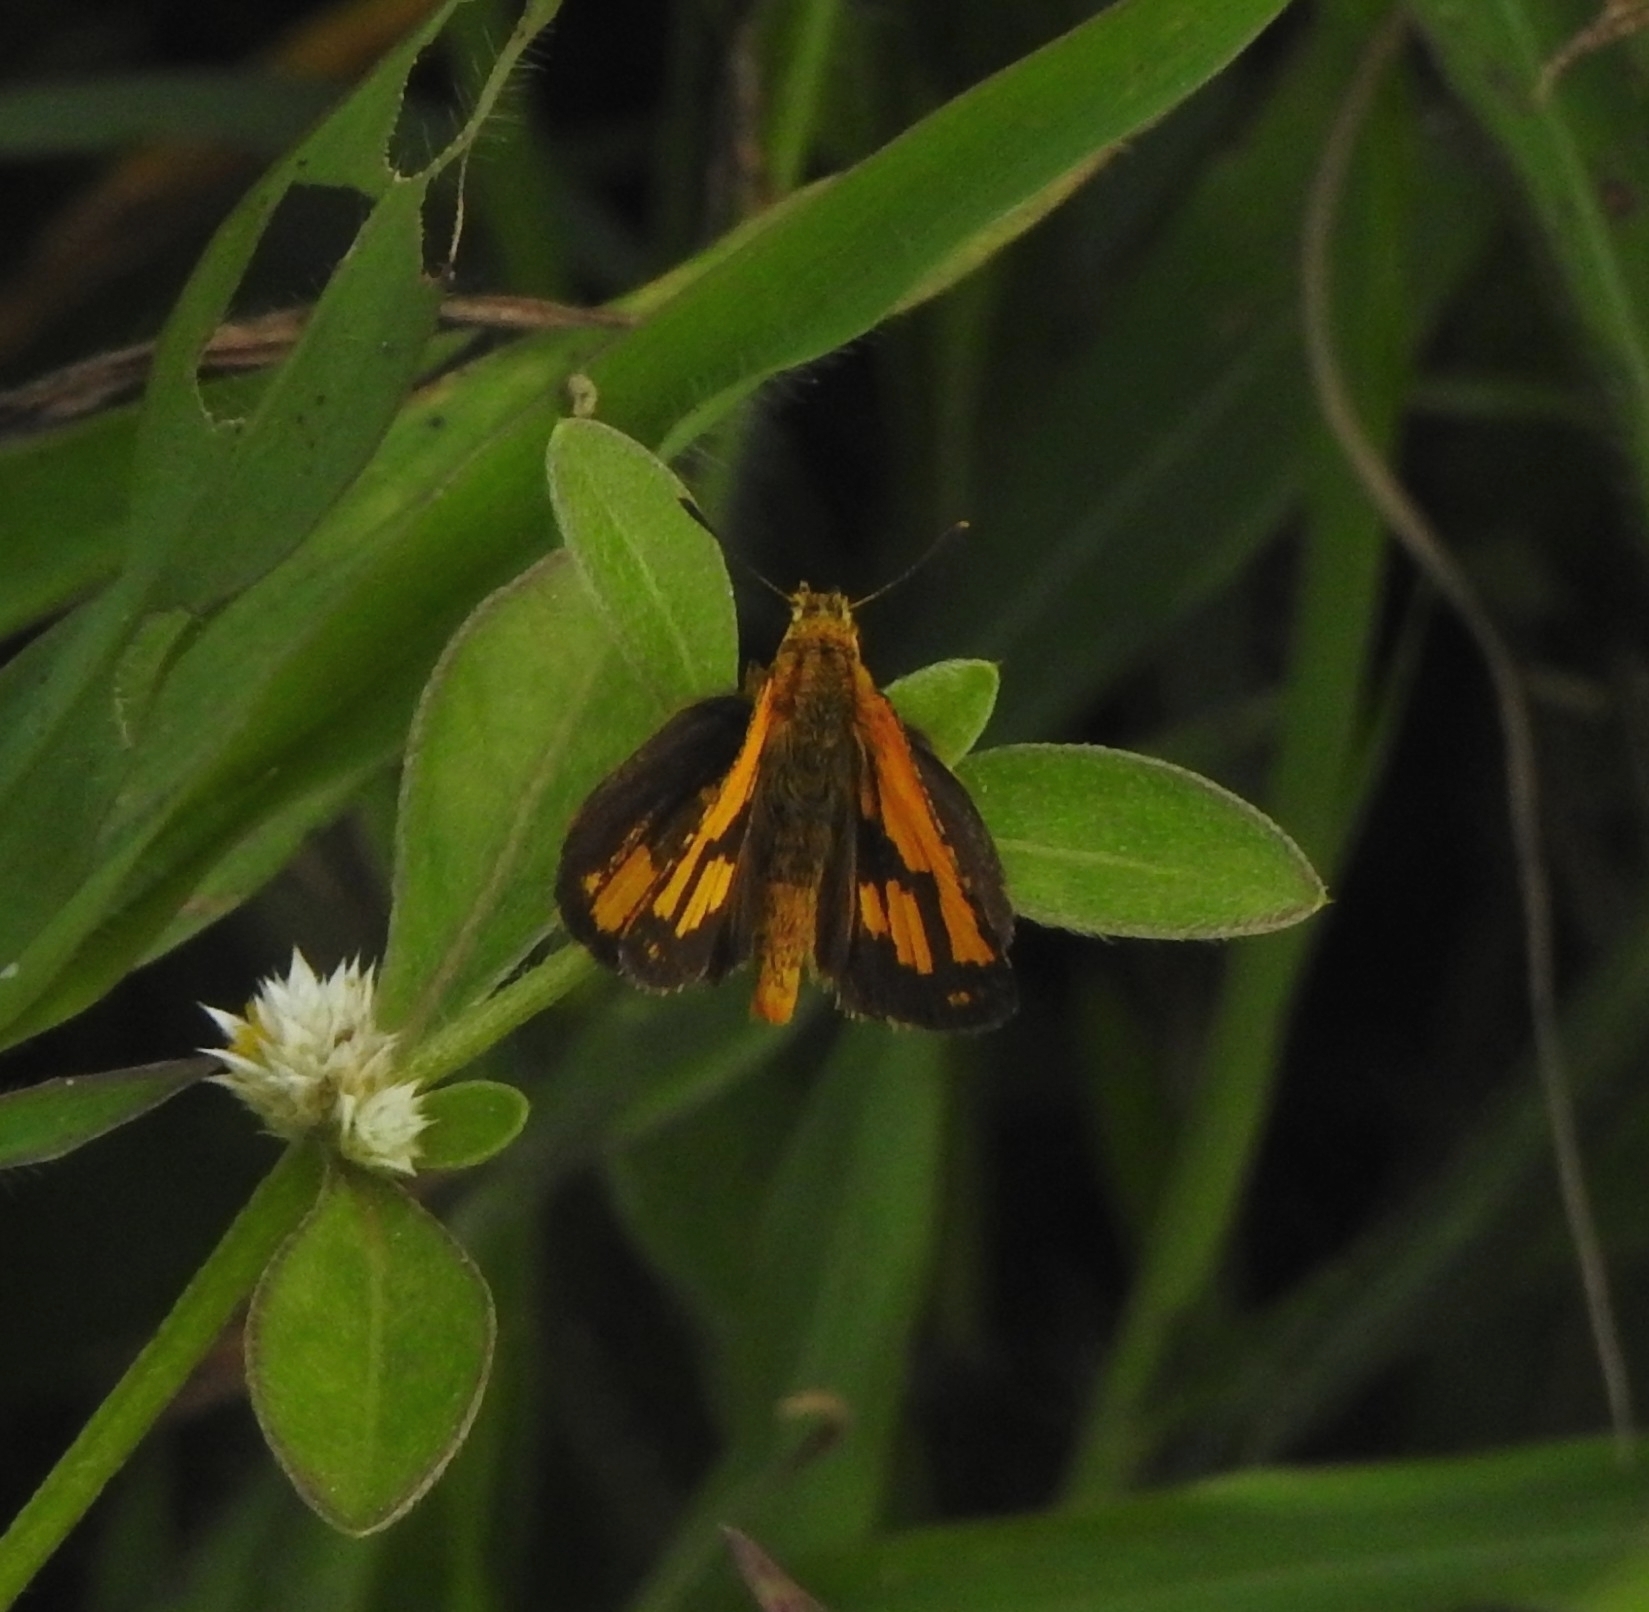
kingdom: Animalia
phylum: Arthropoda
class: Insecta
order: Lepidoptera
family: Hesperiidae
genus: Ampittia
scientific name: Ampittia dioscorides
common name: Common bush hopper
